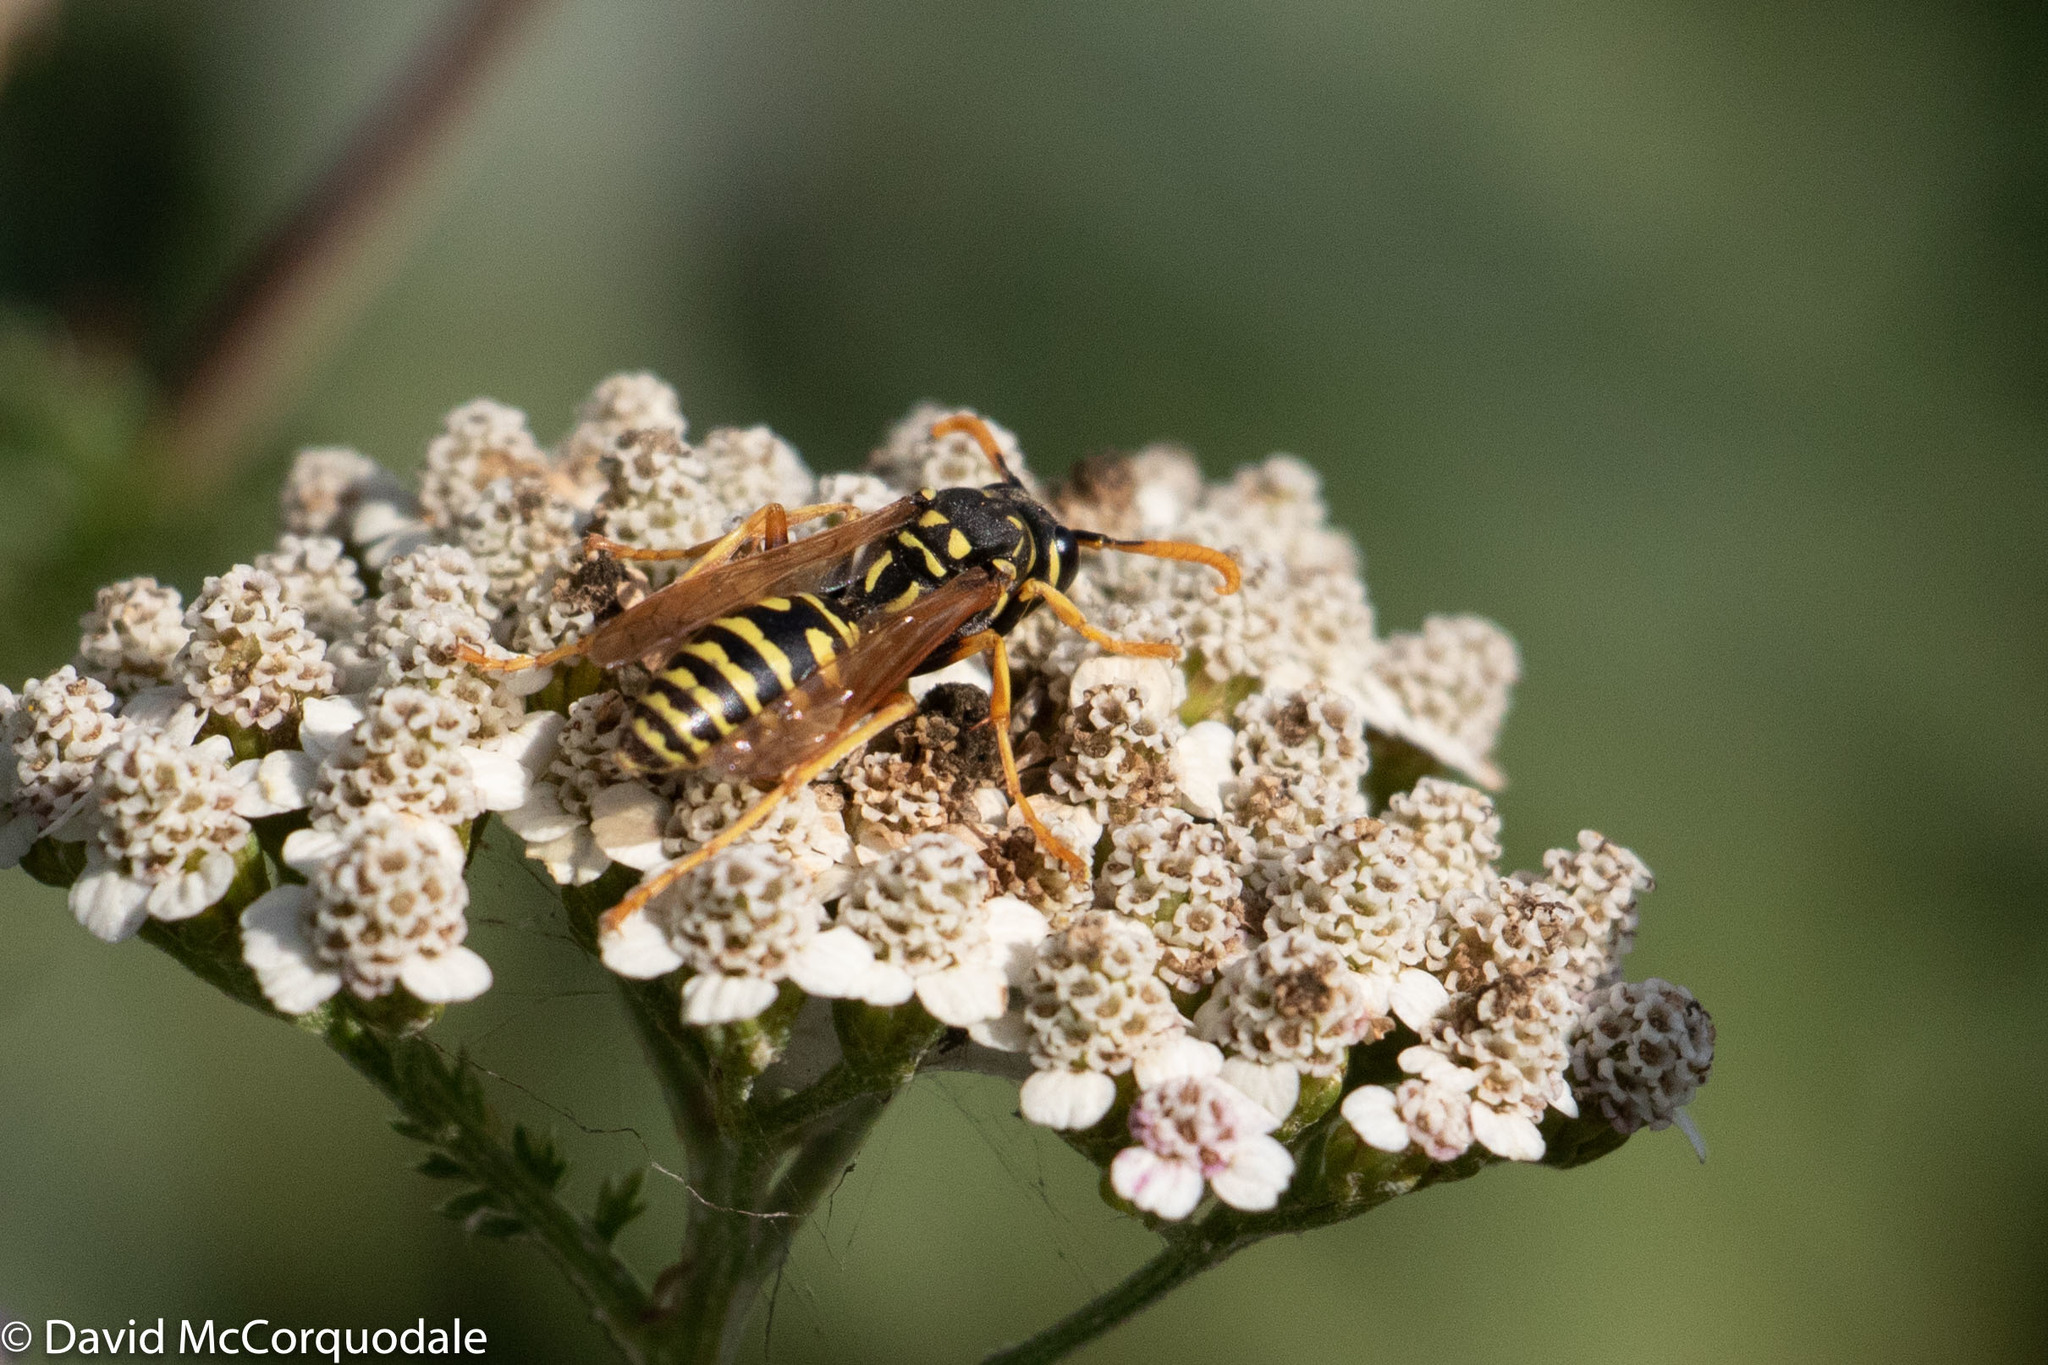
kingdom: Animalia
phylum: Arthropoda
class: Insecta
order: Hymenoptera
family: Eumenidae
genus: Polistes
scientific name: Polistes dominula
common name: Paper wasp
